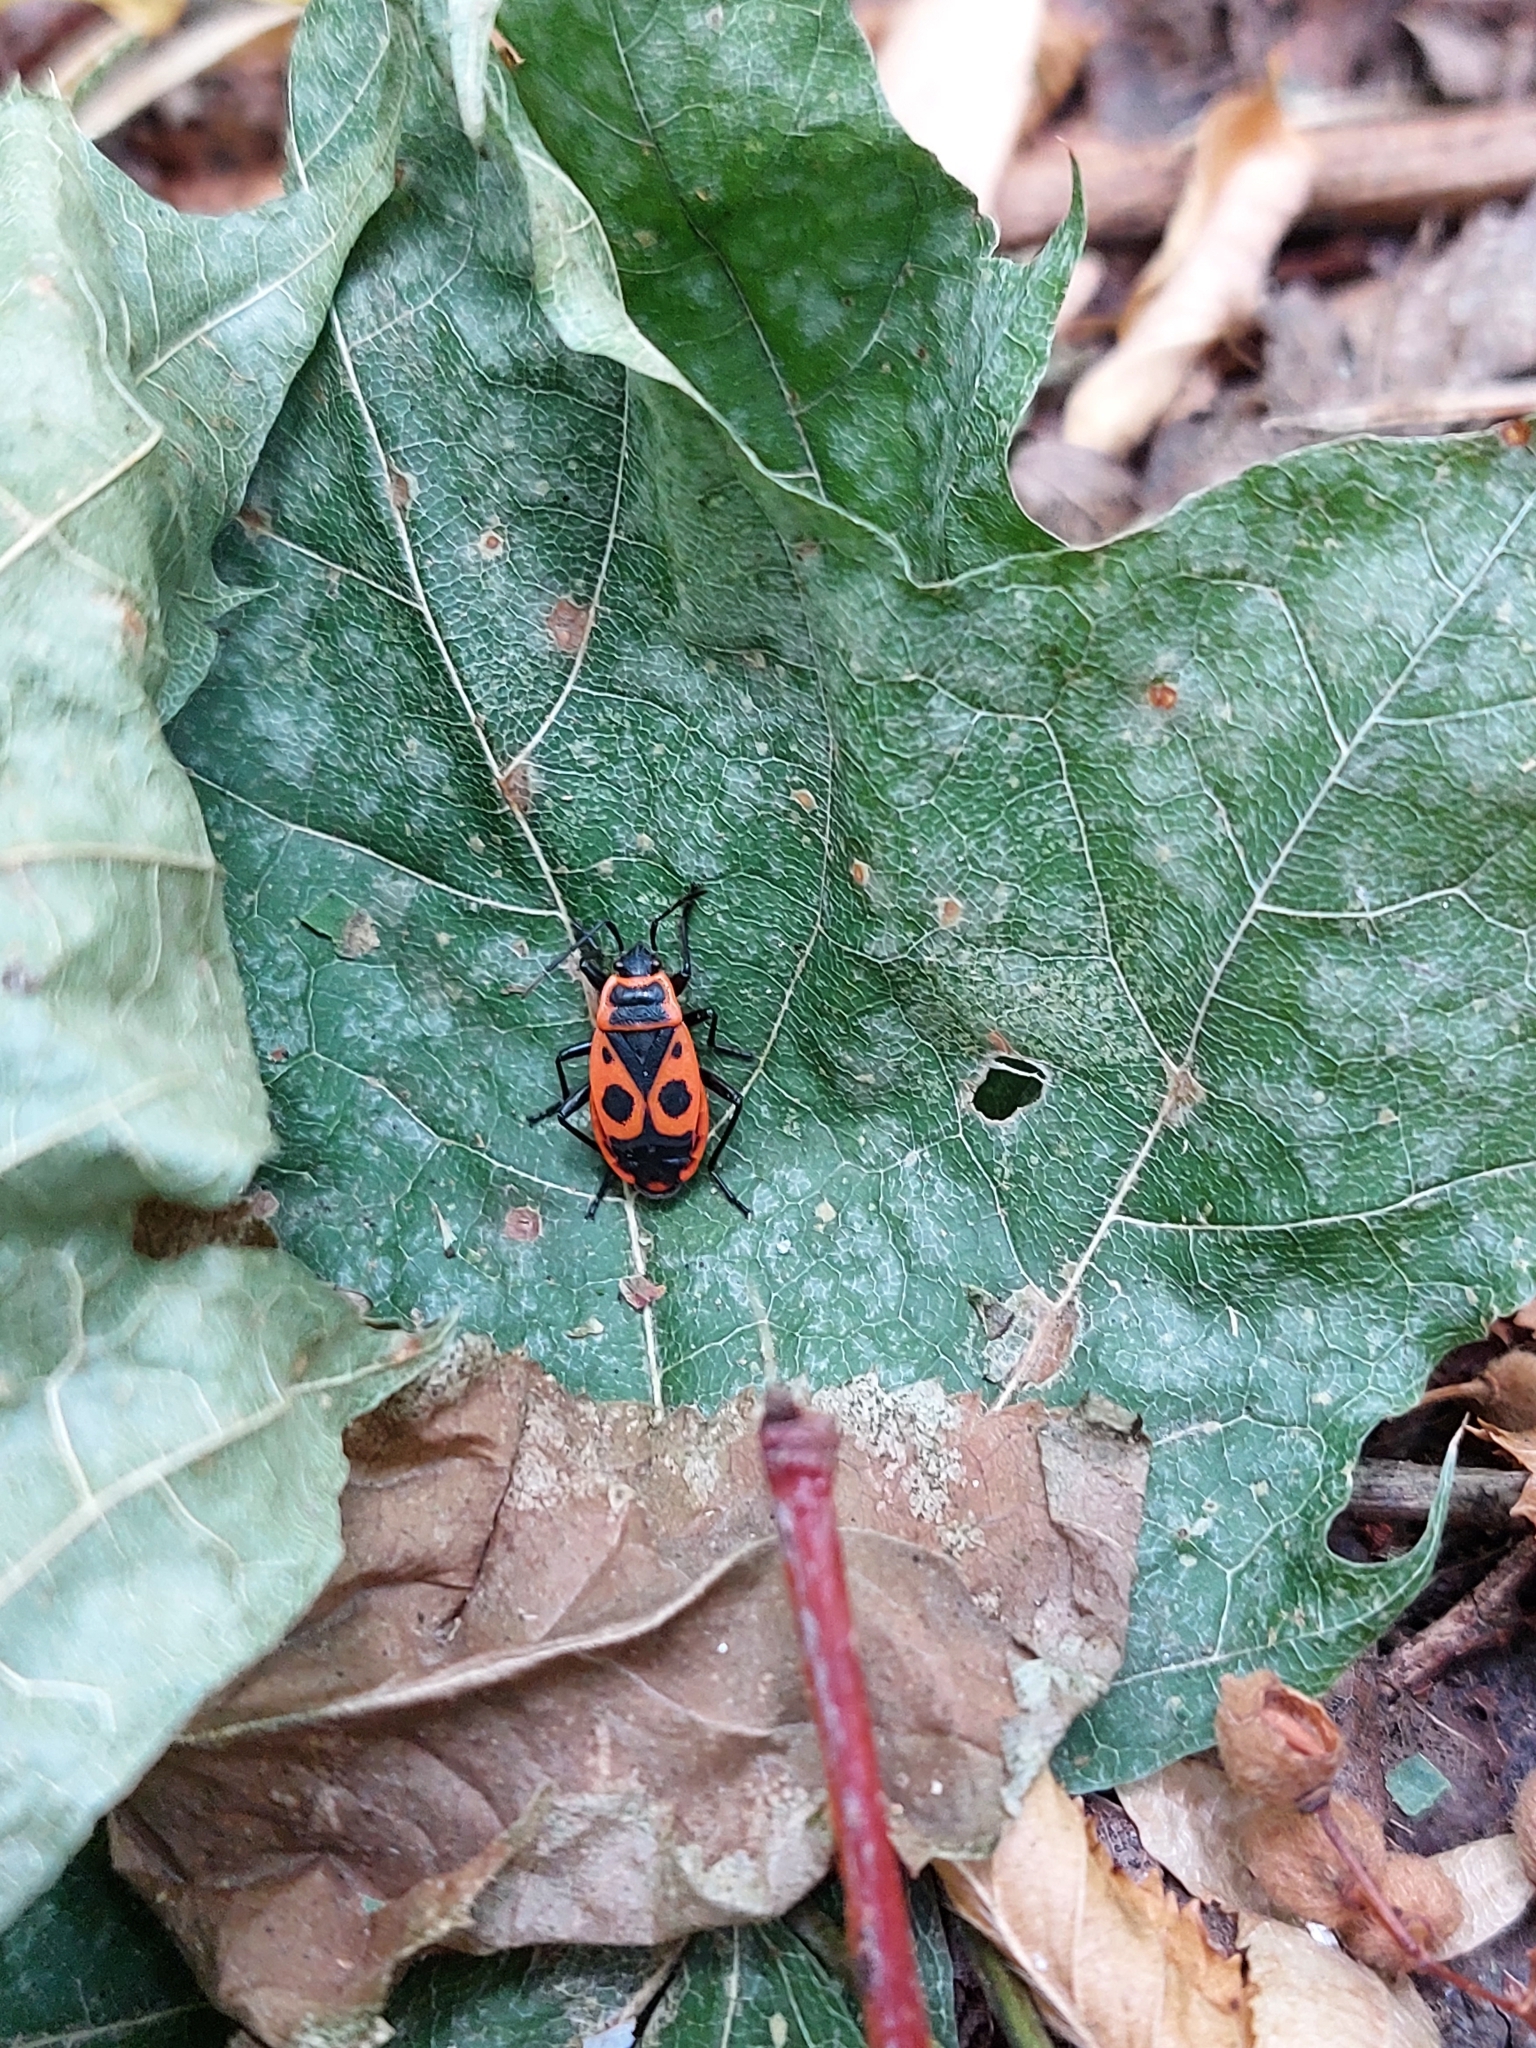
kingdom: Animalia
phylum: Arthropoda
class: Insecta
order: Hemiptera
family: Pyrrhocoridae
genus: Pyrrhocoris
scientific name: Pyrrhocoris apterus
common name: Firebug
